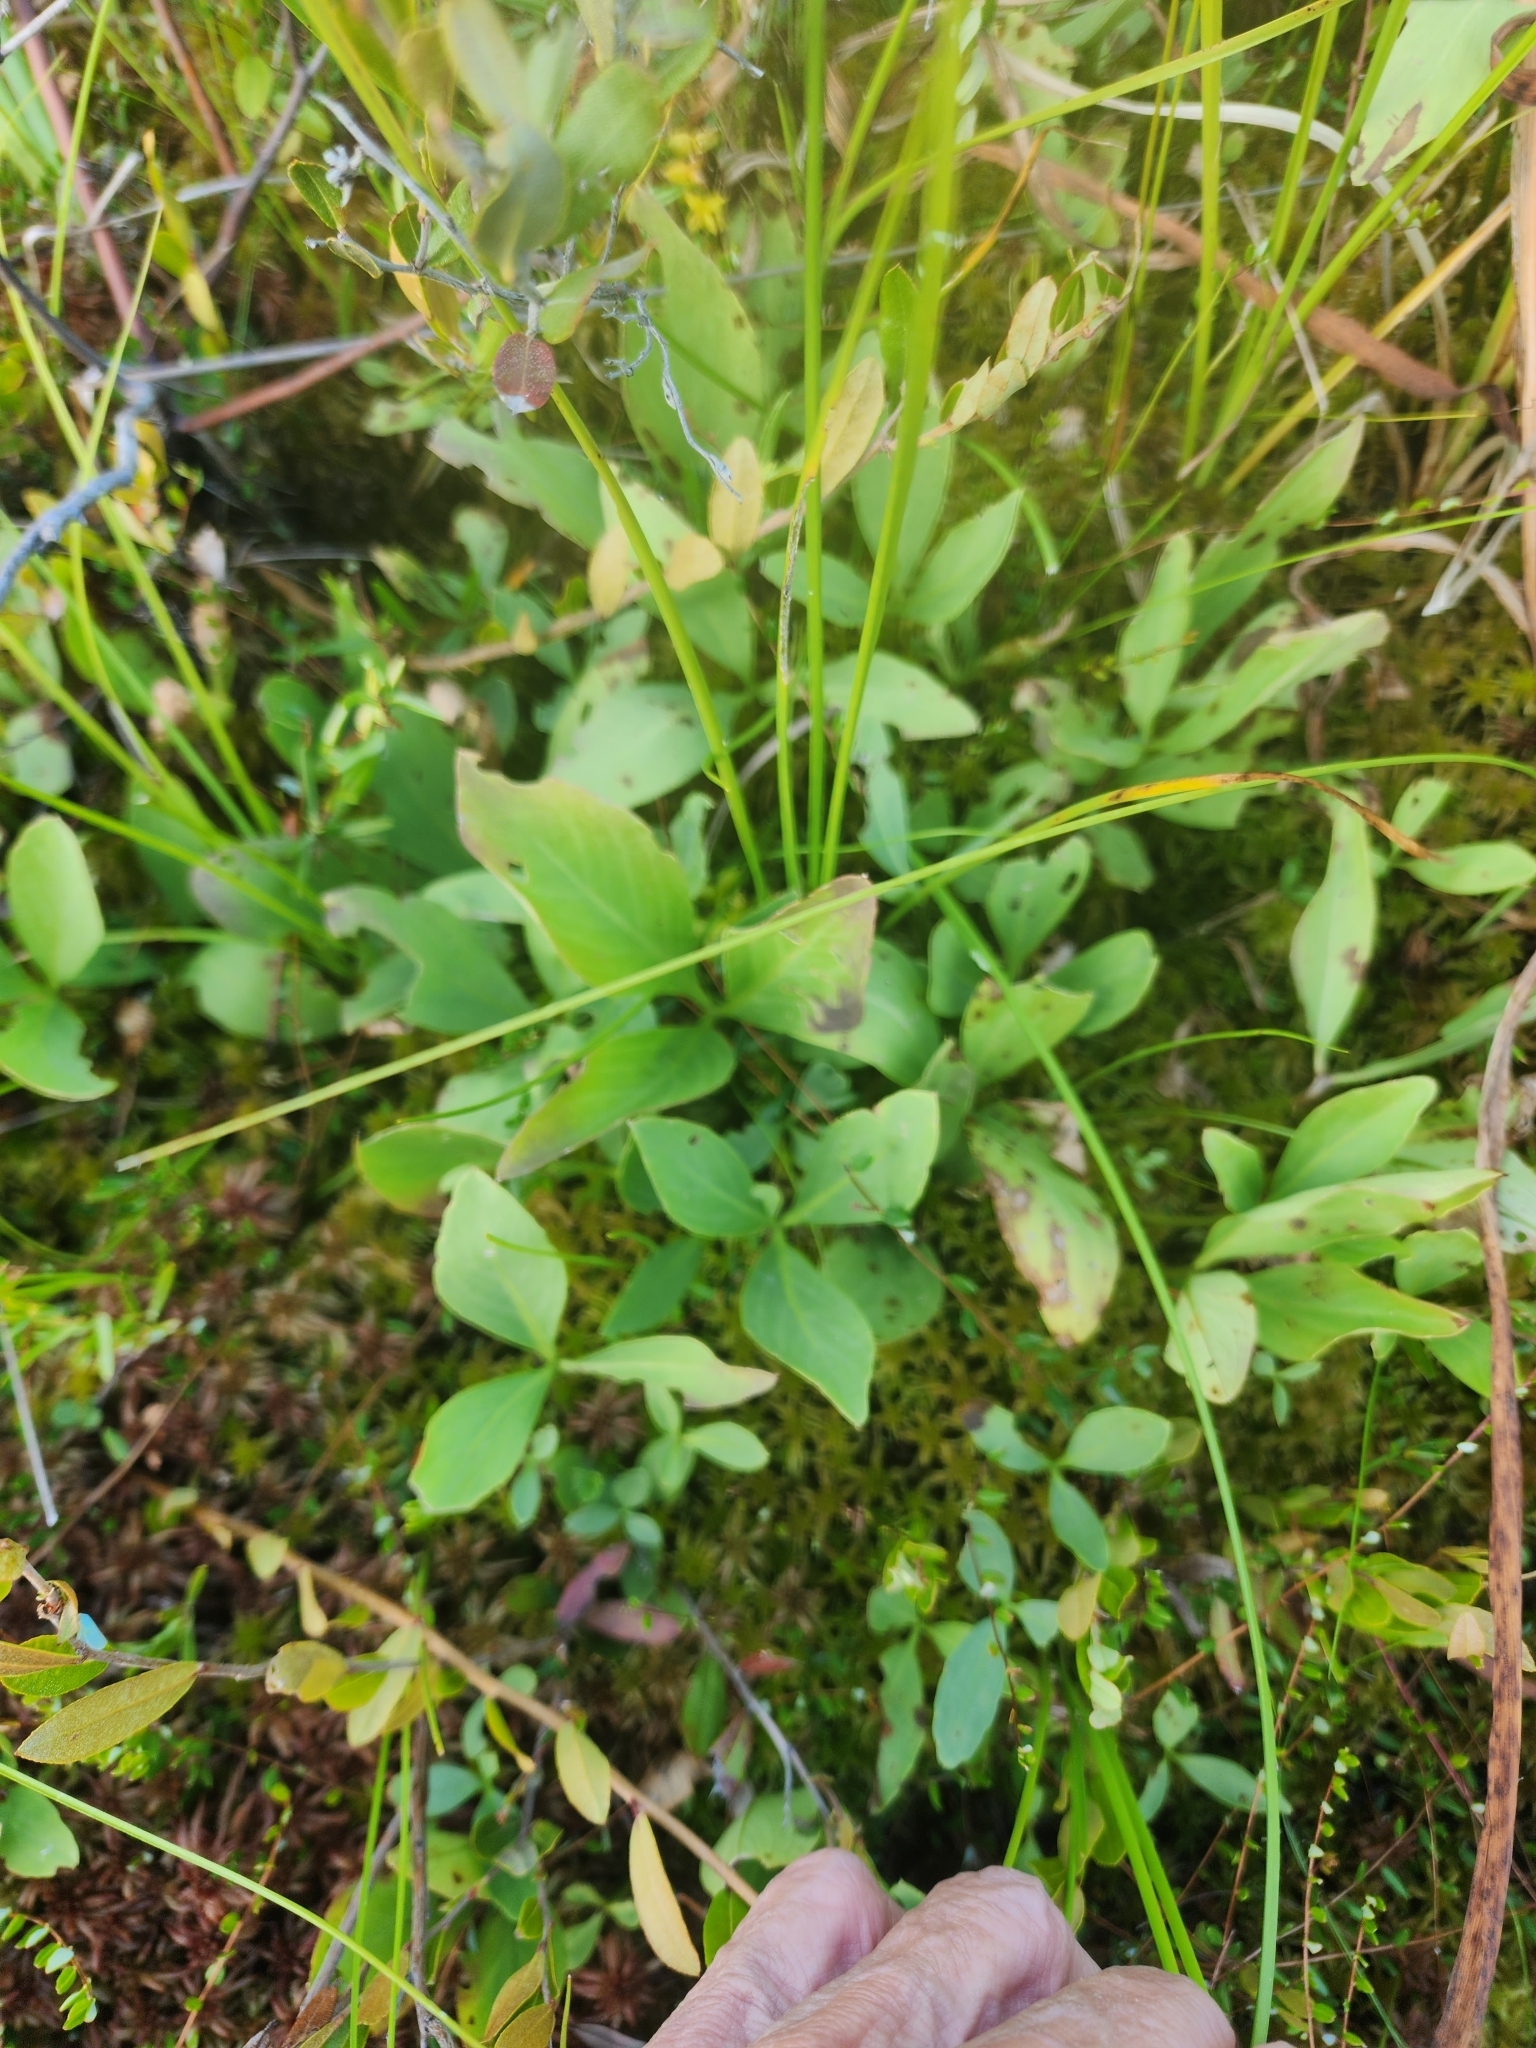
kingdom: Plantae
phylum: Tracheophyta
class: Magnoliopsida
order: Asterales
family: Menyanthaceae
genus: Menyanthes
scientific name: Menyanthes trifoliata
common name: Bogbean
